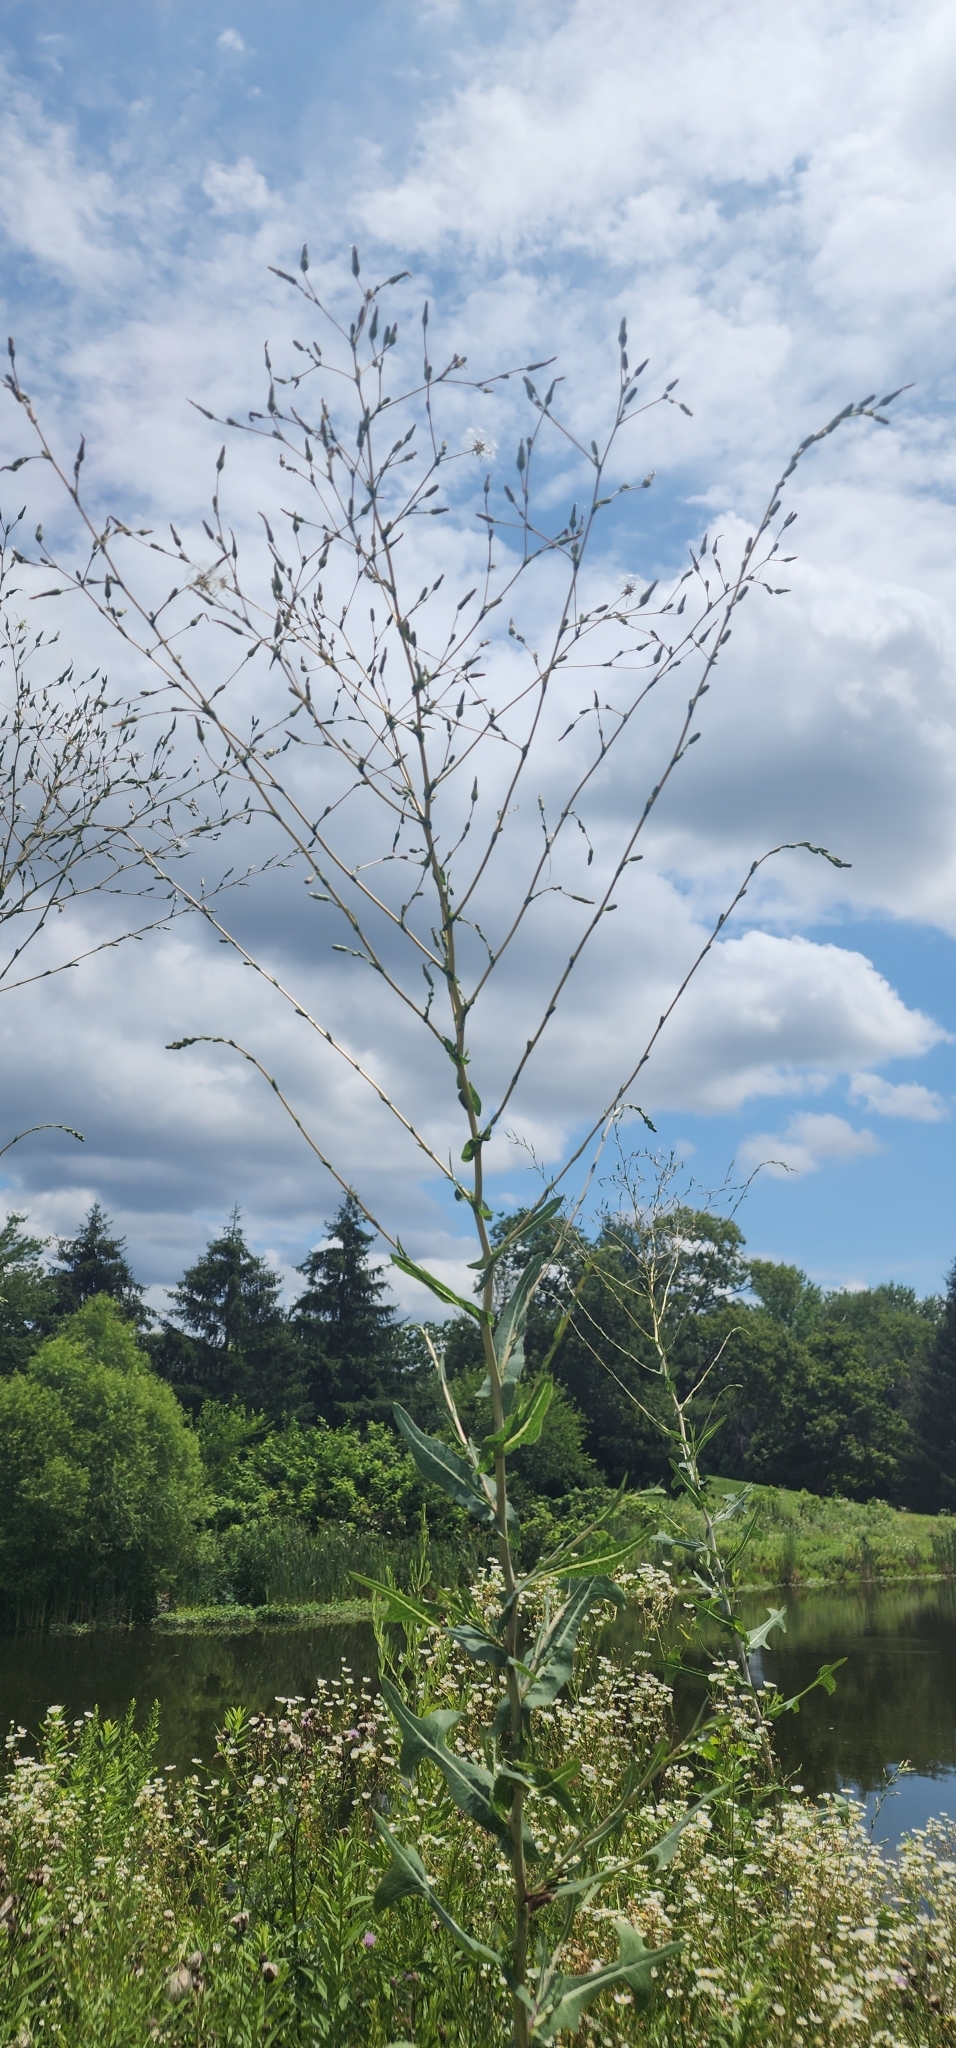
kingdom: Plantae
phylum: Tracheophyta
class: Magnoliopsida
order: Asterales
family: Asteraceae
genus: Lactuca
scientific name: Lactuca serriola
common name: Prickly lettuce
